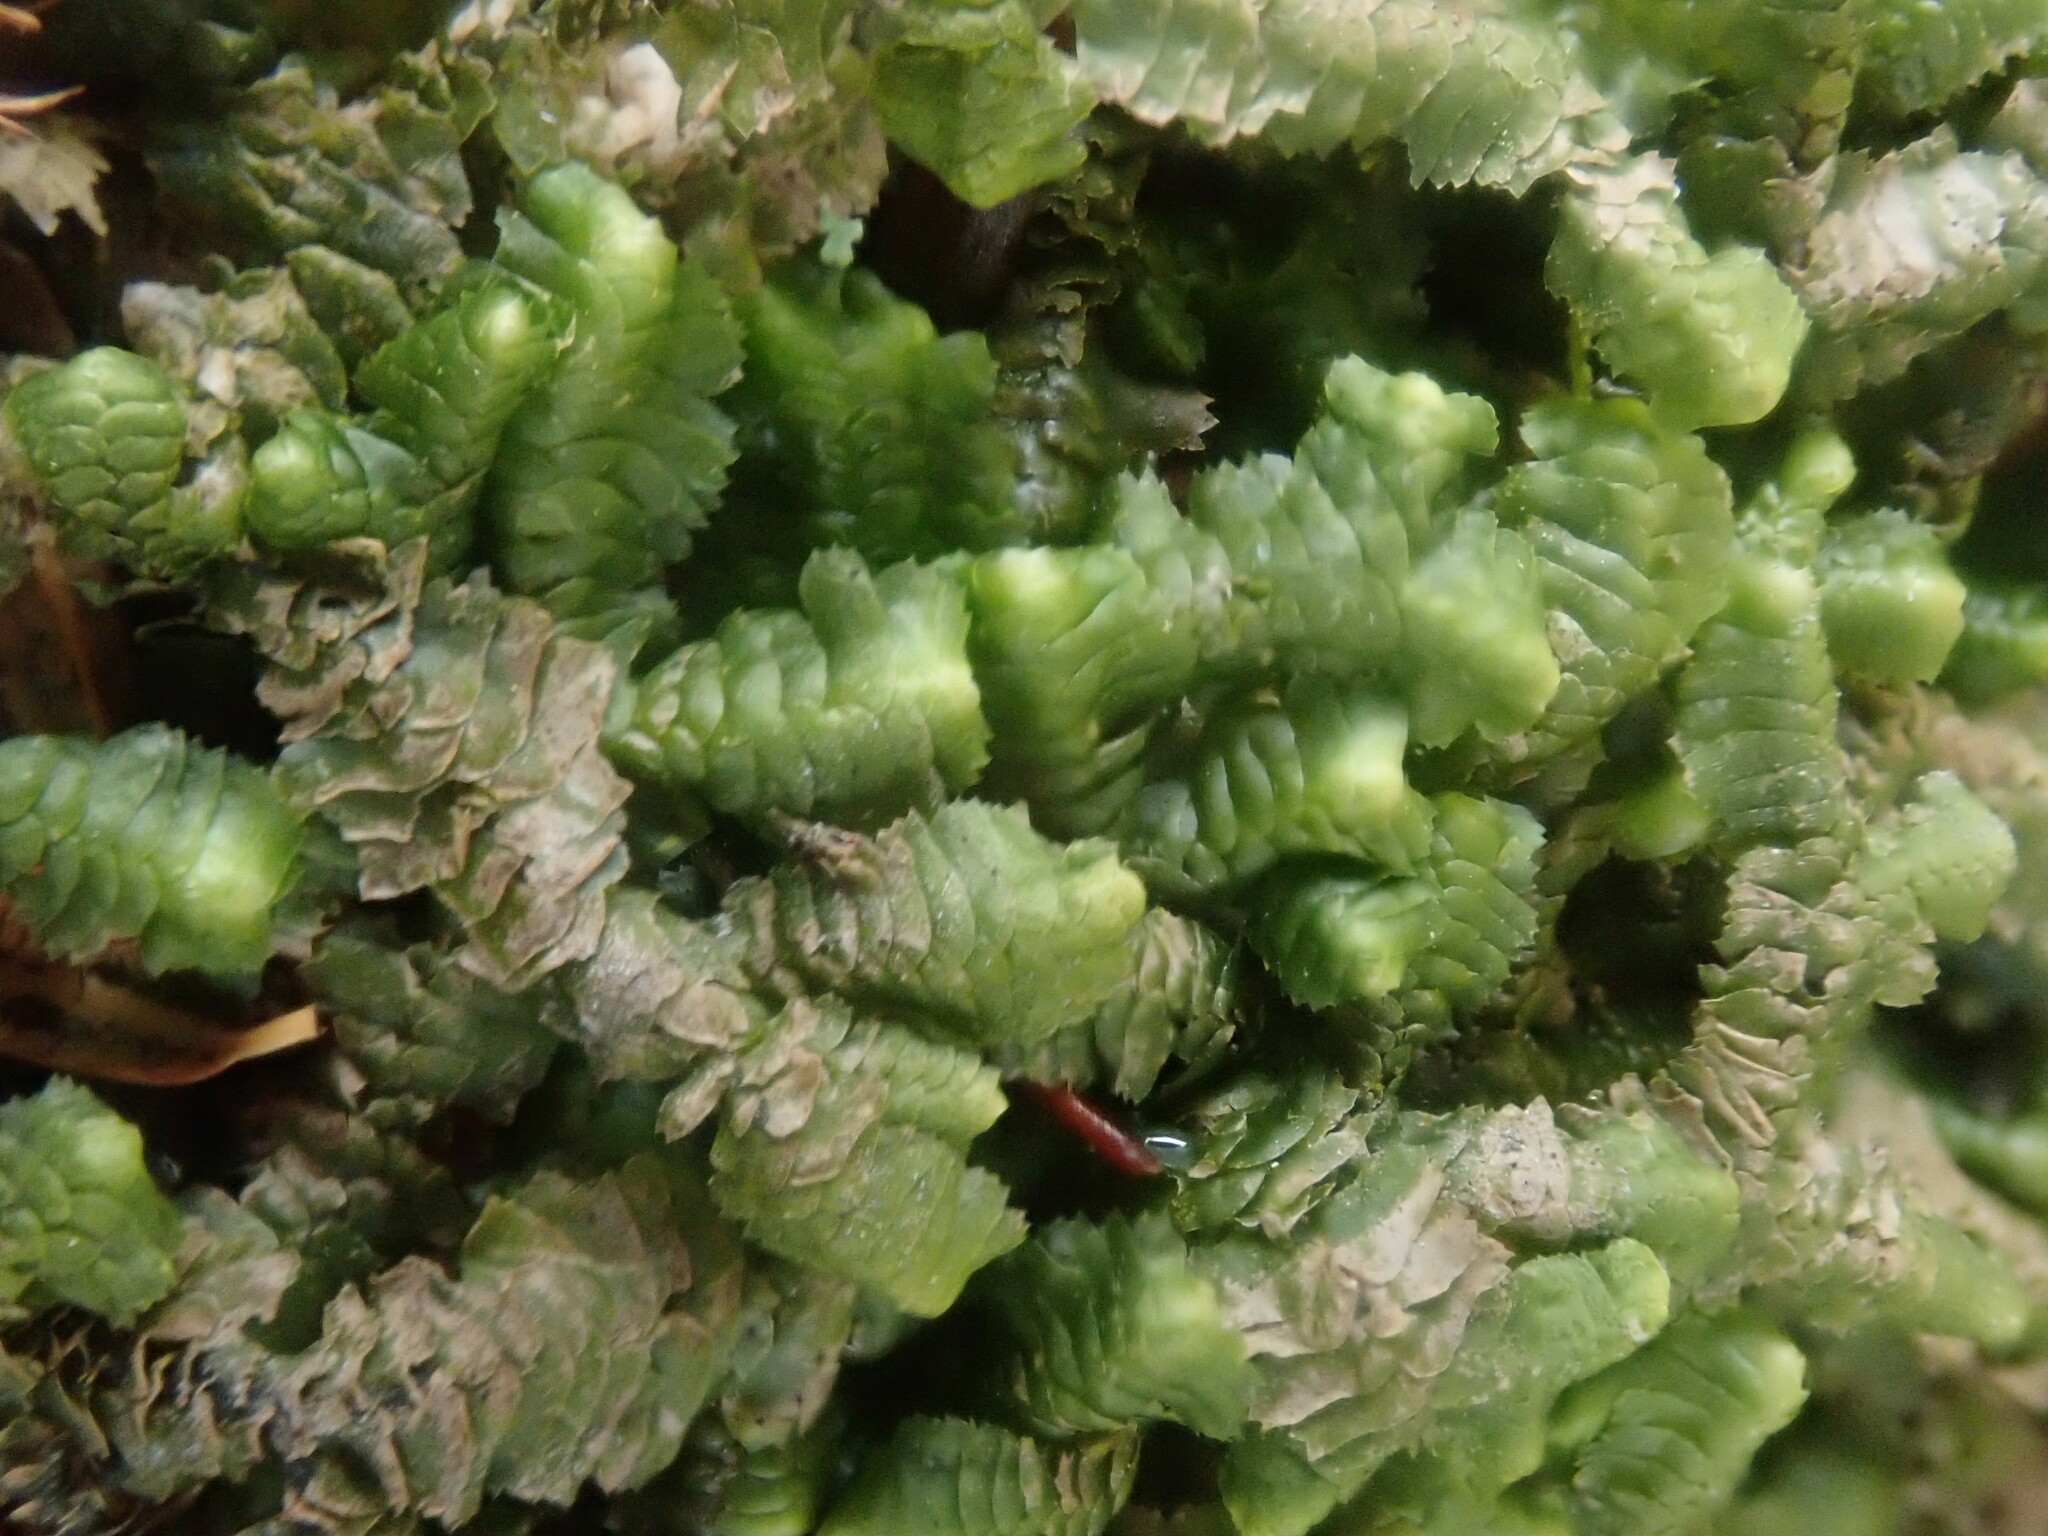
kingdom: Plantae
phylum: Marchantiophyta
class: Jungermanniopsida
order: Jungermanniales
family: Lepidoziaceae
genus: Bazzania
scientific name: Bazzania trilobata
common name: Three-lobed whipwort
